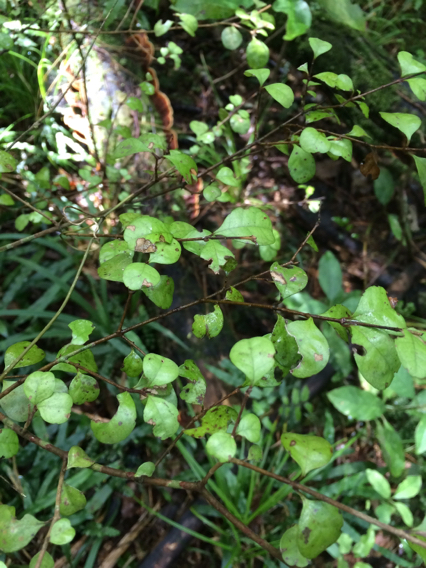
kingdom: Plantae
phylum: Tracheophyta
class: Magnoliopsida
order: Myrtales
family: Myrtaceae
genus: Lophomyrtus
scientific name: Lophomyrtus ralphii
